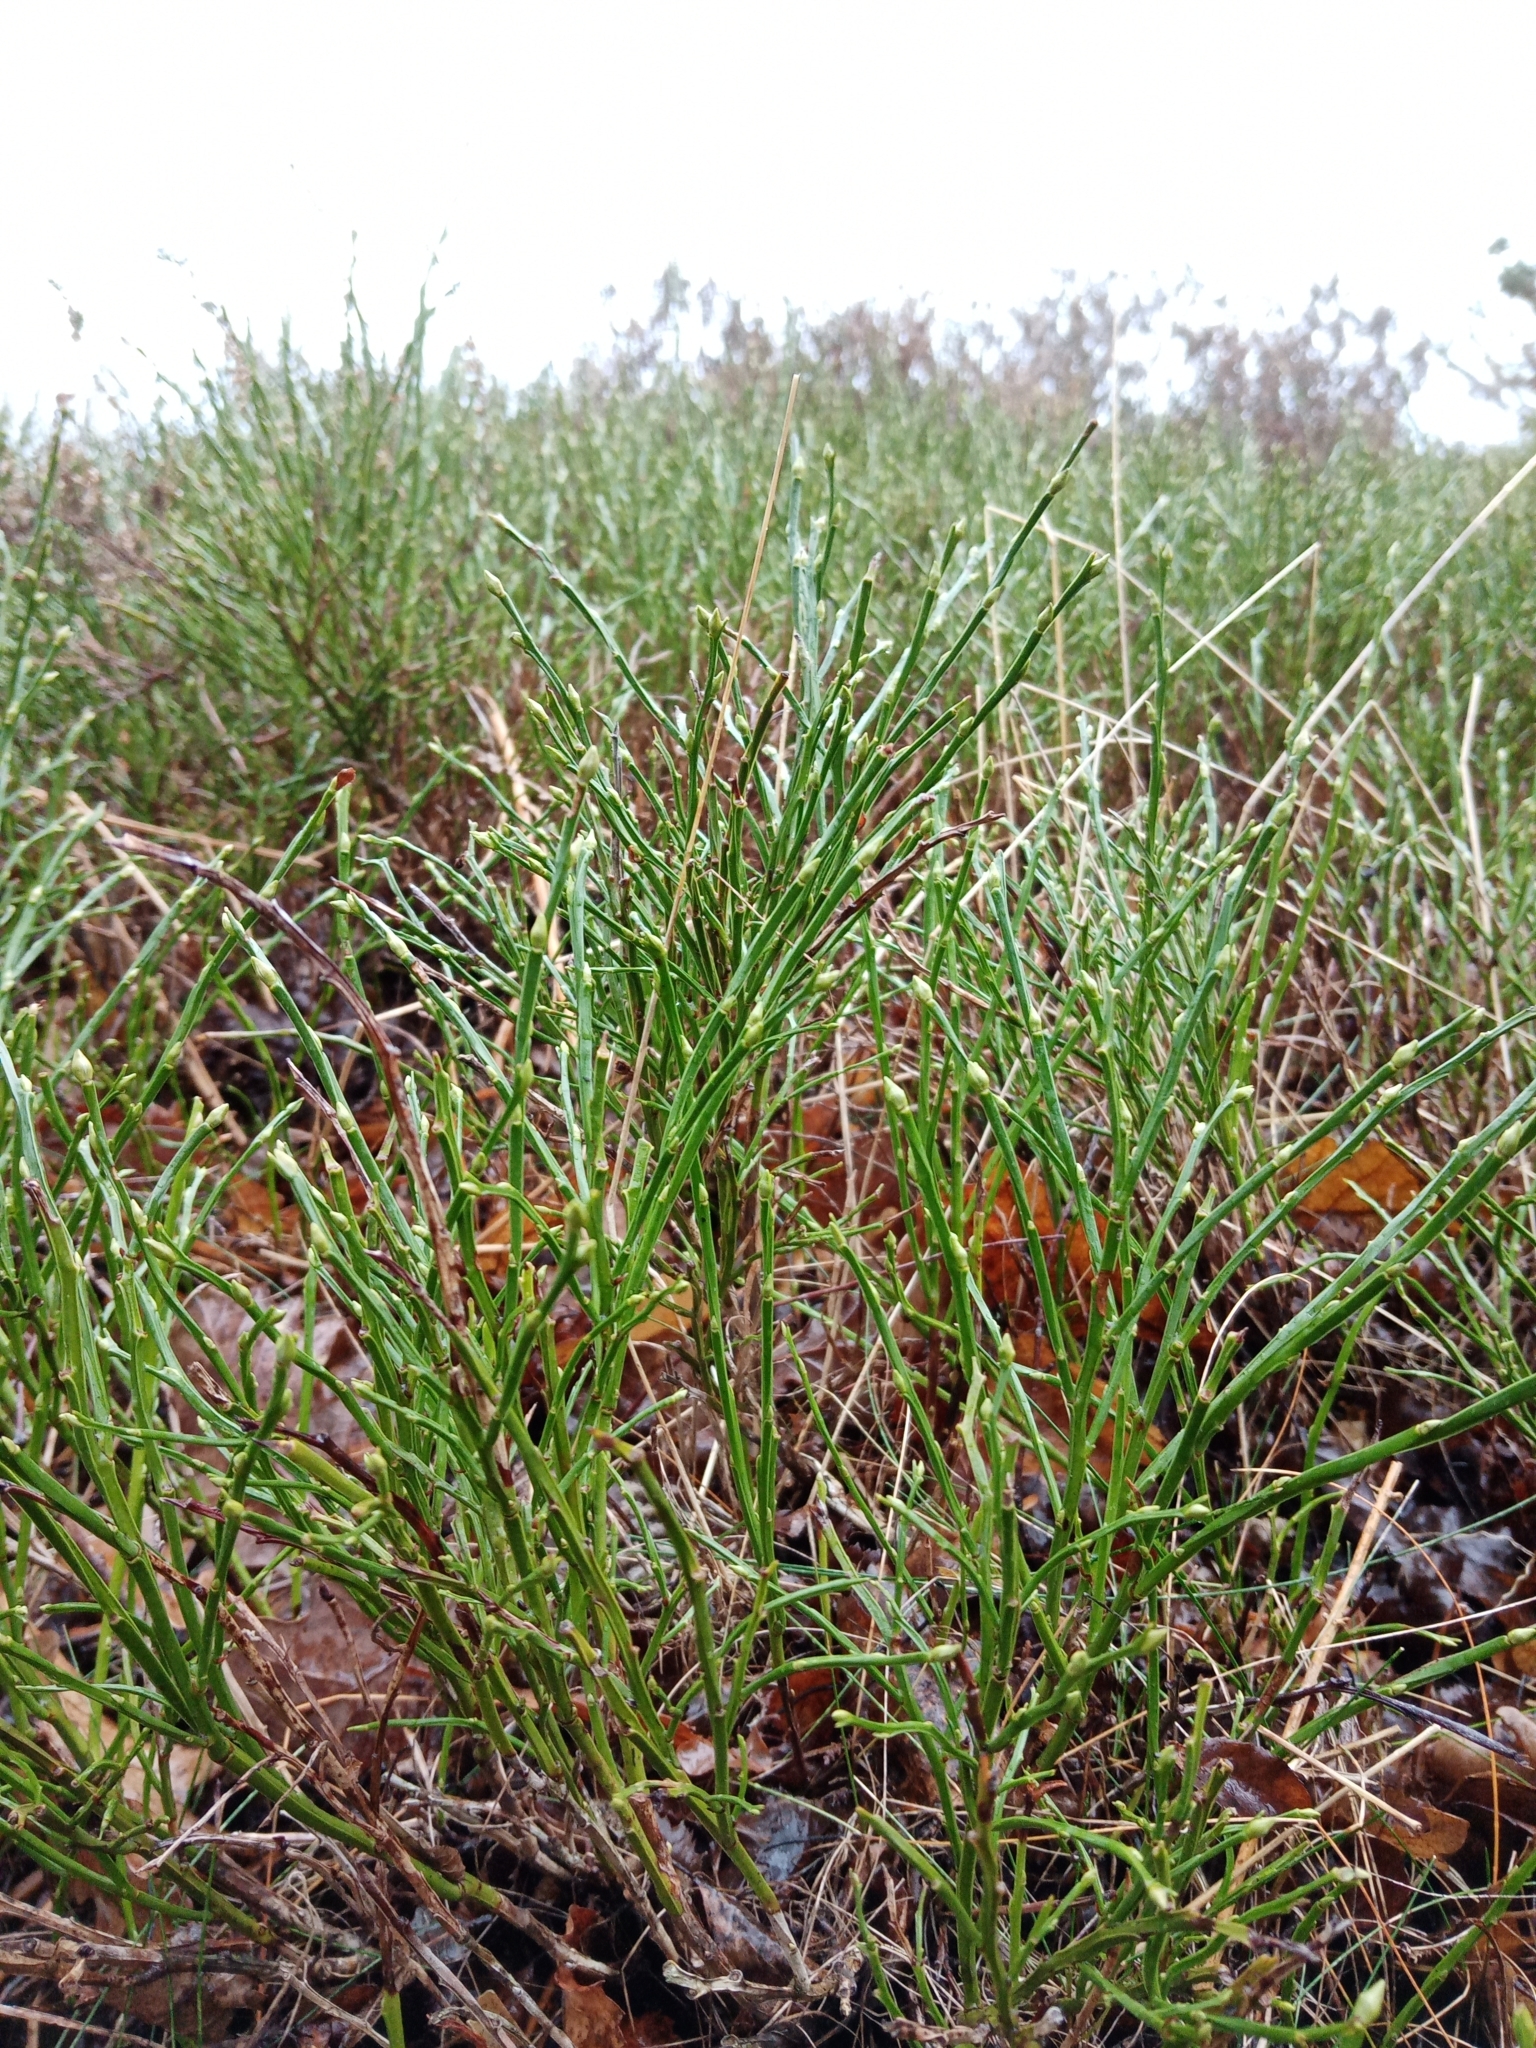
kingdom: Plantae
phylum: Tracheophyta
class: Magnoliopsida
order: Ericales
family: Ericaceae
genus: Vaccinium
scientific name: Vaccinium myrtillus
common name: Bilberry
